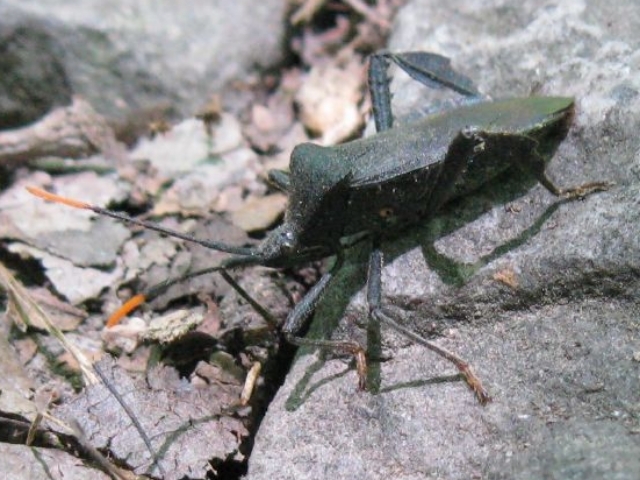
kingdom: Animalia
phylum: Arthropoda
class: Insecta
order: Hemiptera
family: Coreidae
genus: Acanthocephala
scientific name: Acanthocephala terminalis
